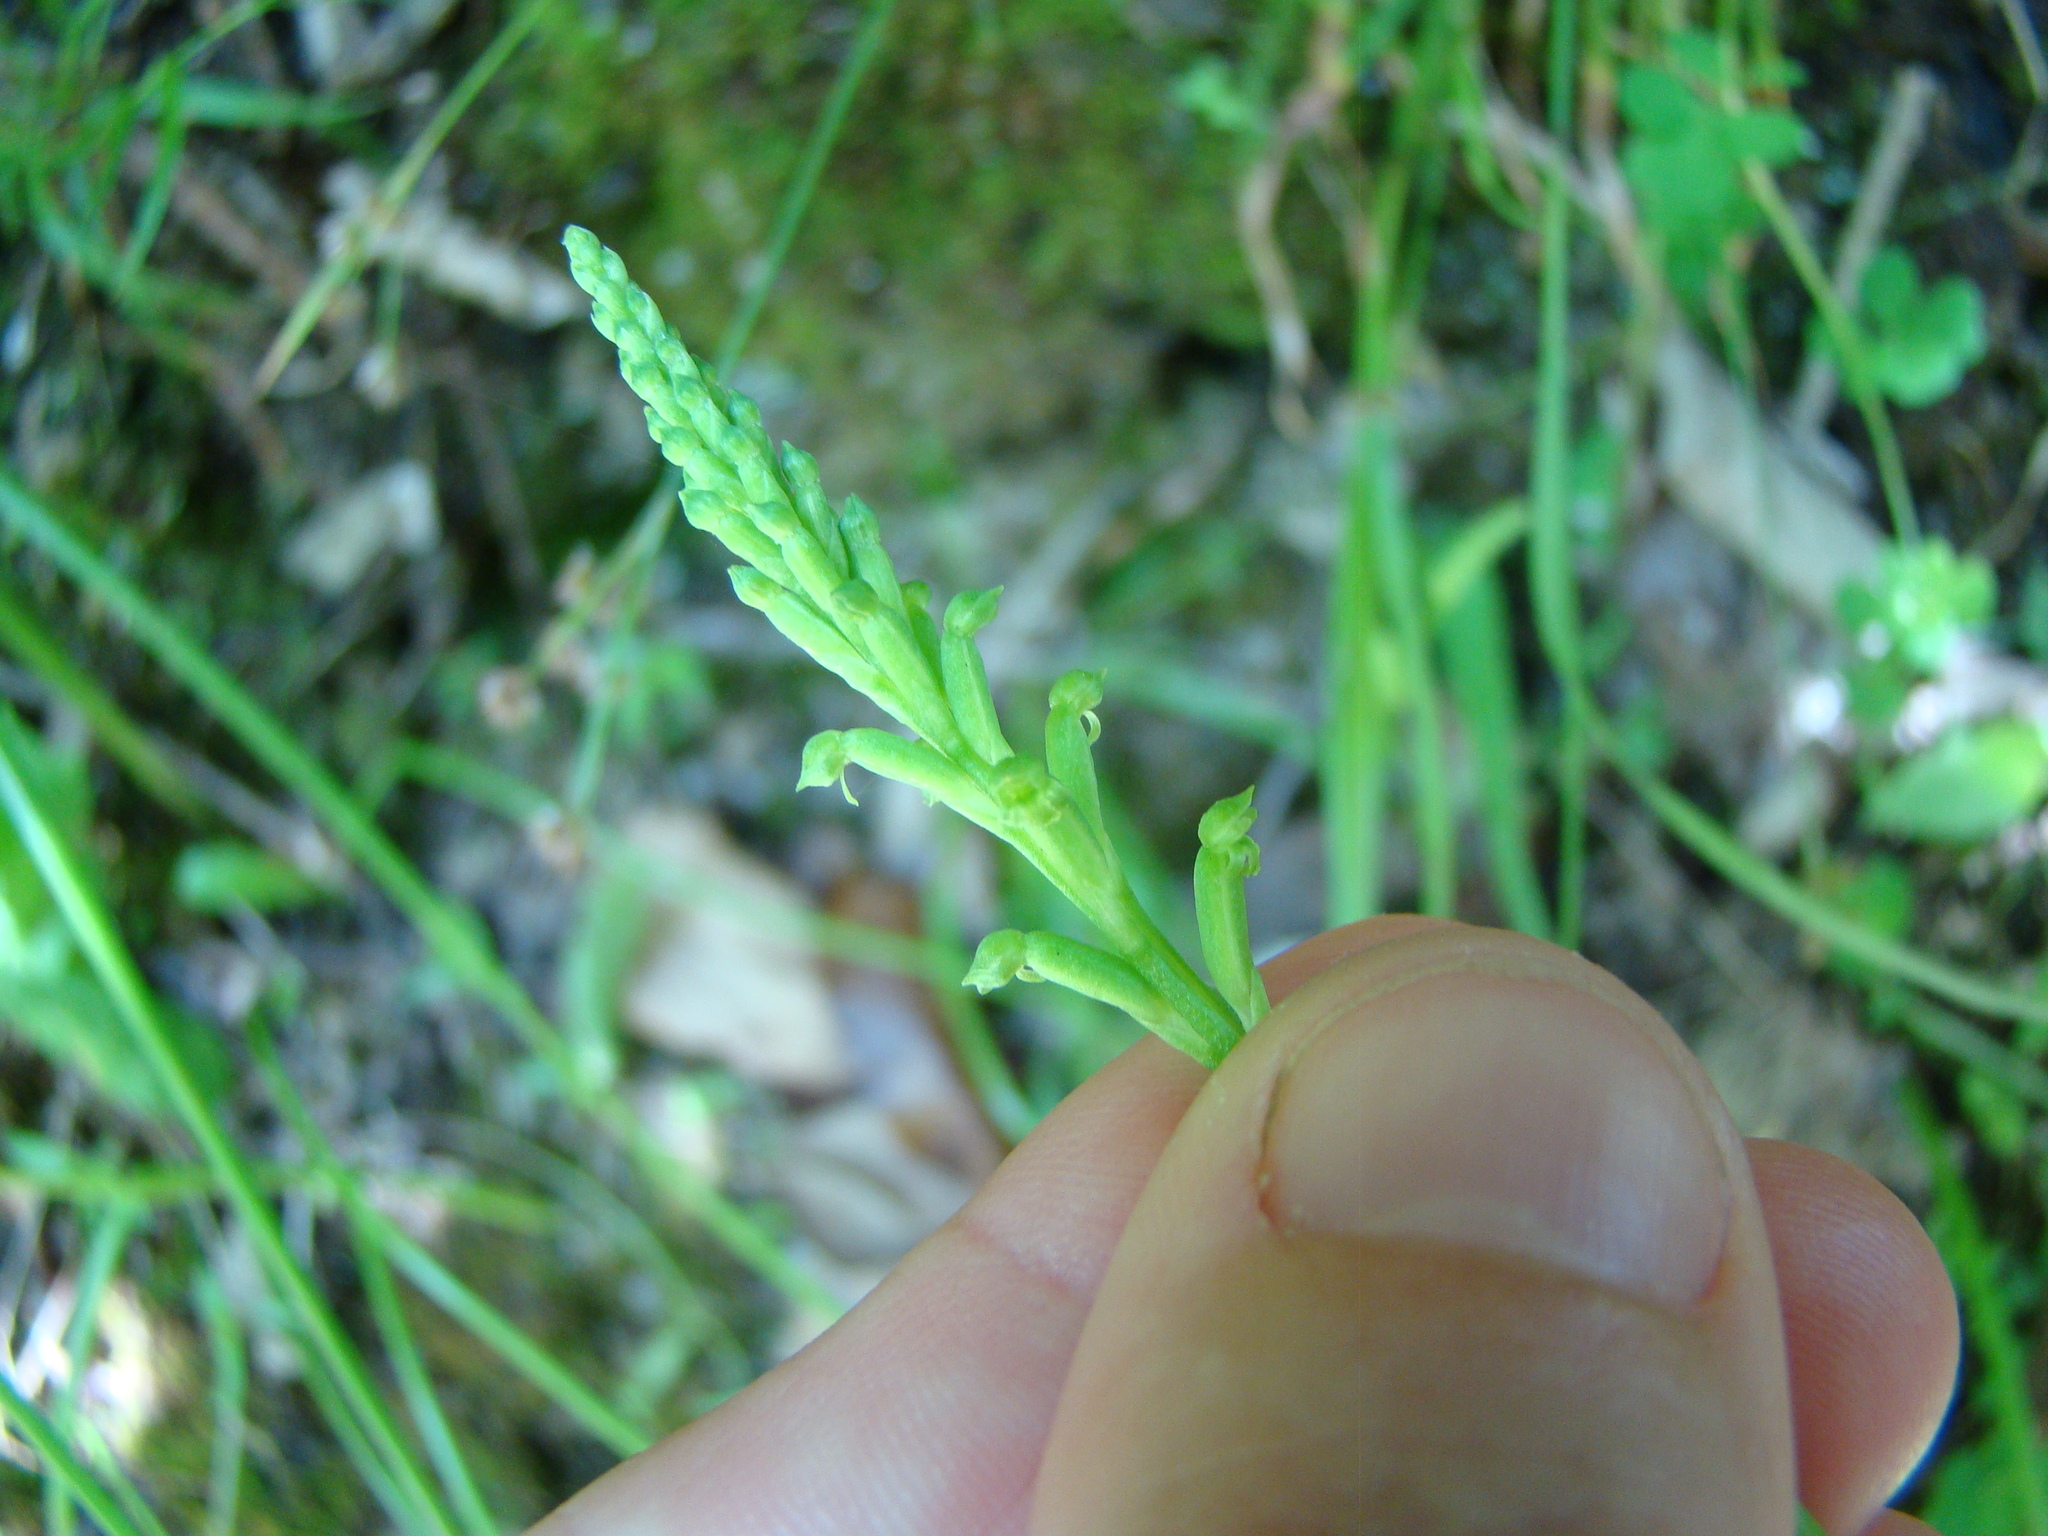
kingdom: Plantae
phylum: Tracheophyta
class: Liliopsida
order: Asparagales
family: Orchidaceae
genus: Microtis
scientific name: Microtis unifolia
